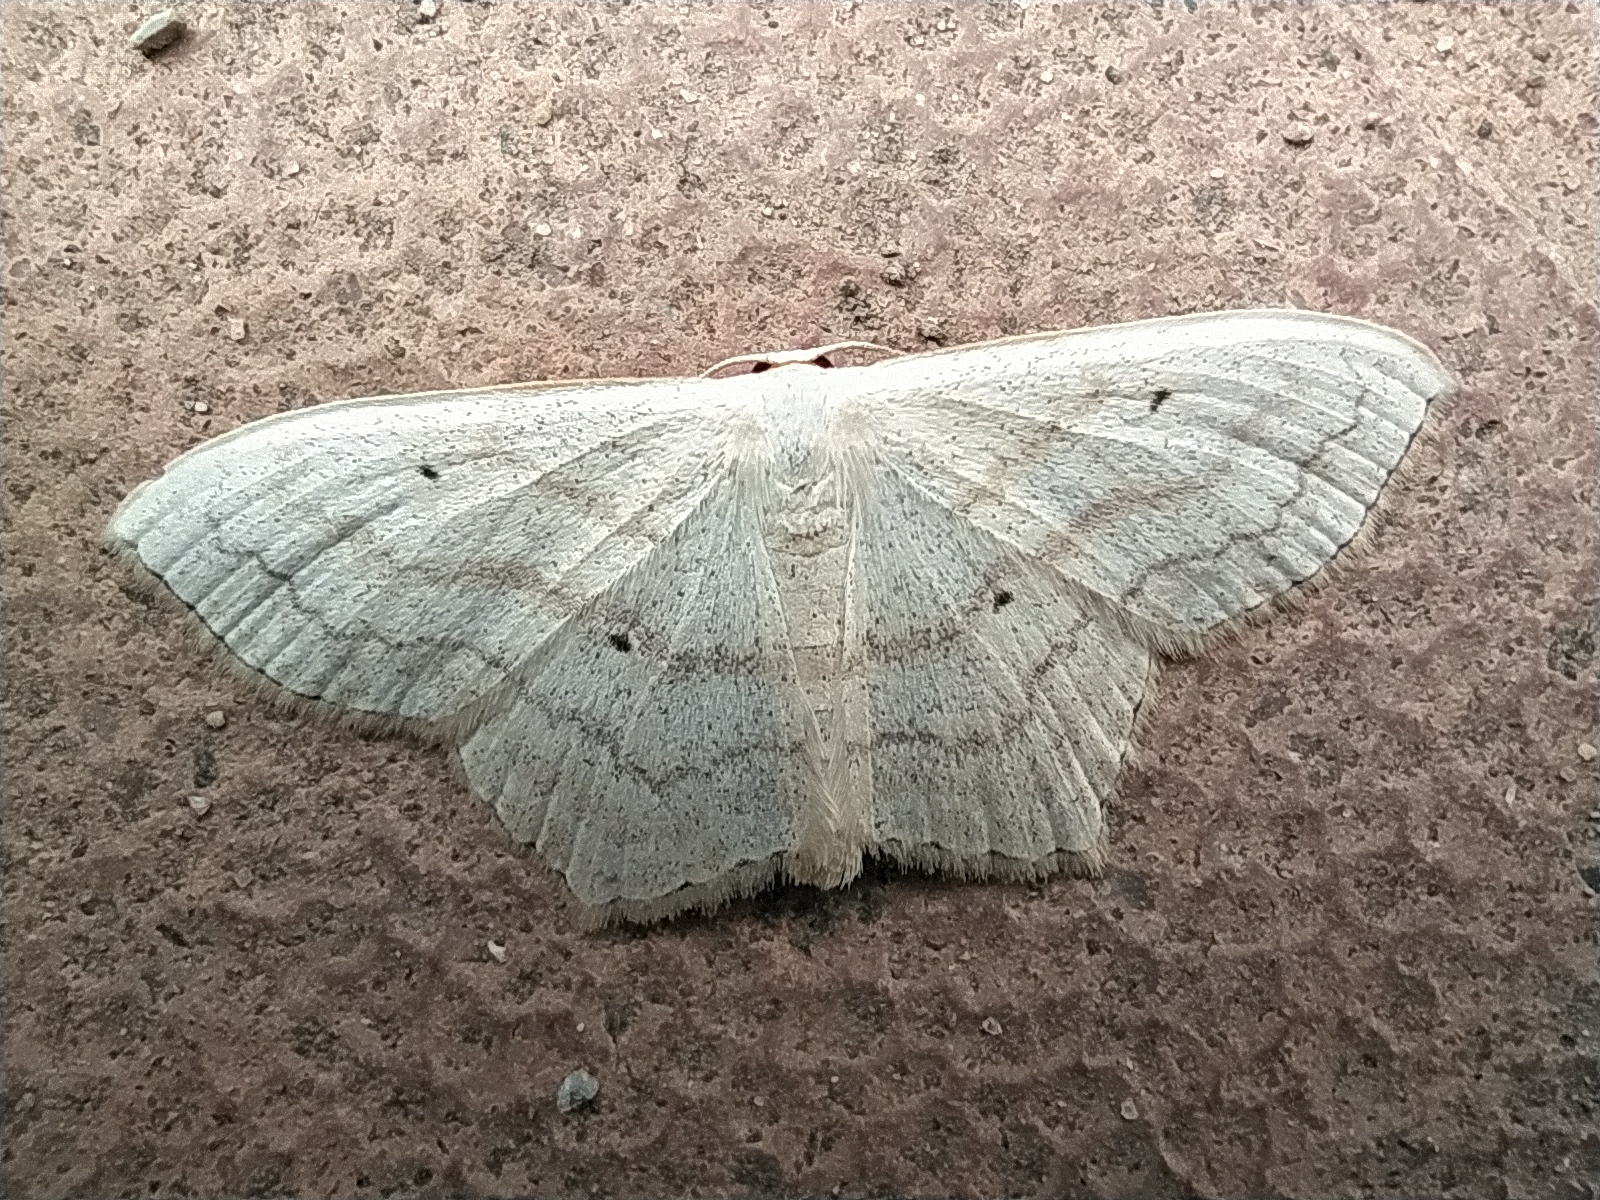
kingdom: Animalia
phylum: Arthropoda
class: Insecta
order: Lepidoptera
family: Geometridae
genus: Scopula
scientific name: Scopula nigropunctata
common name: Sub-angled wave
